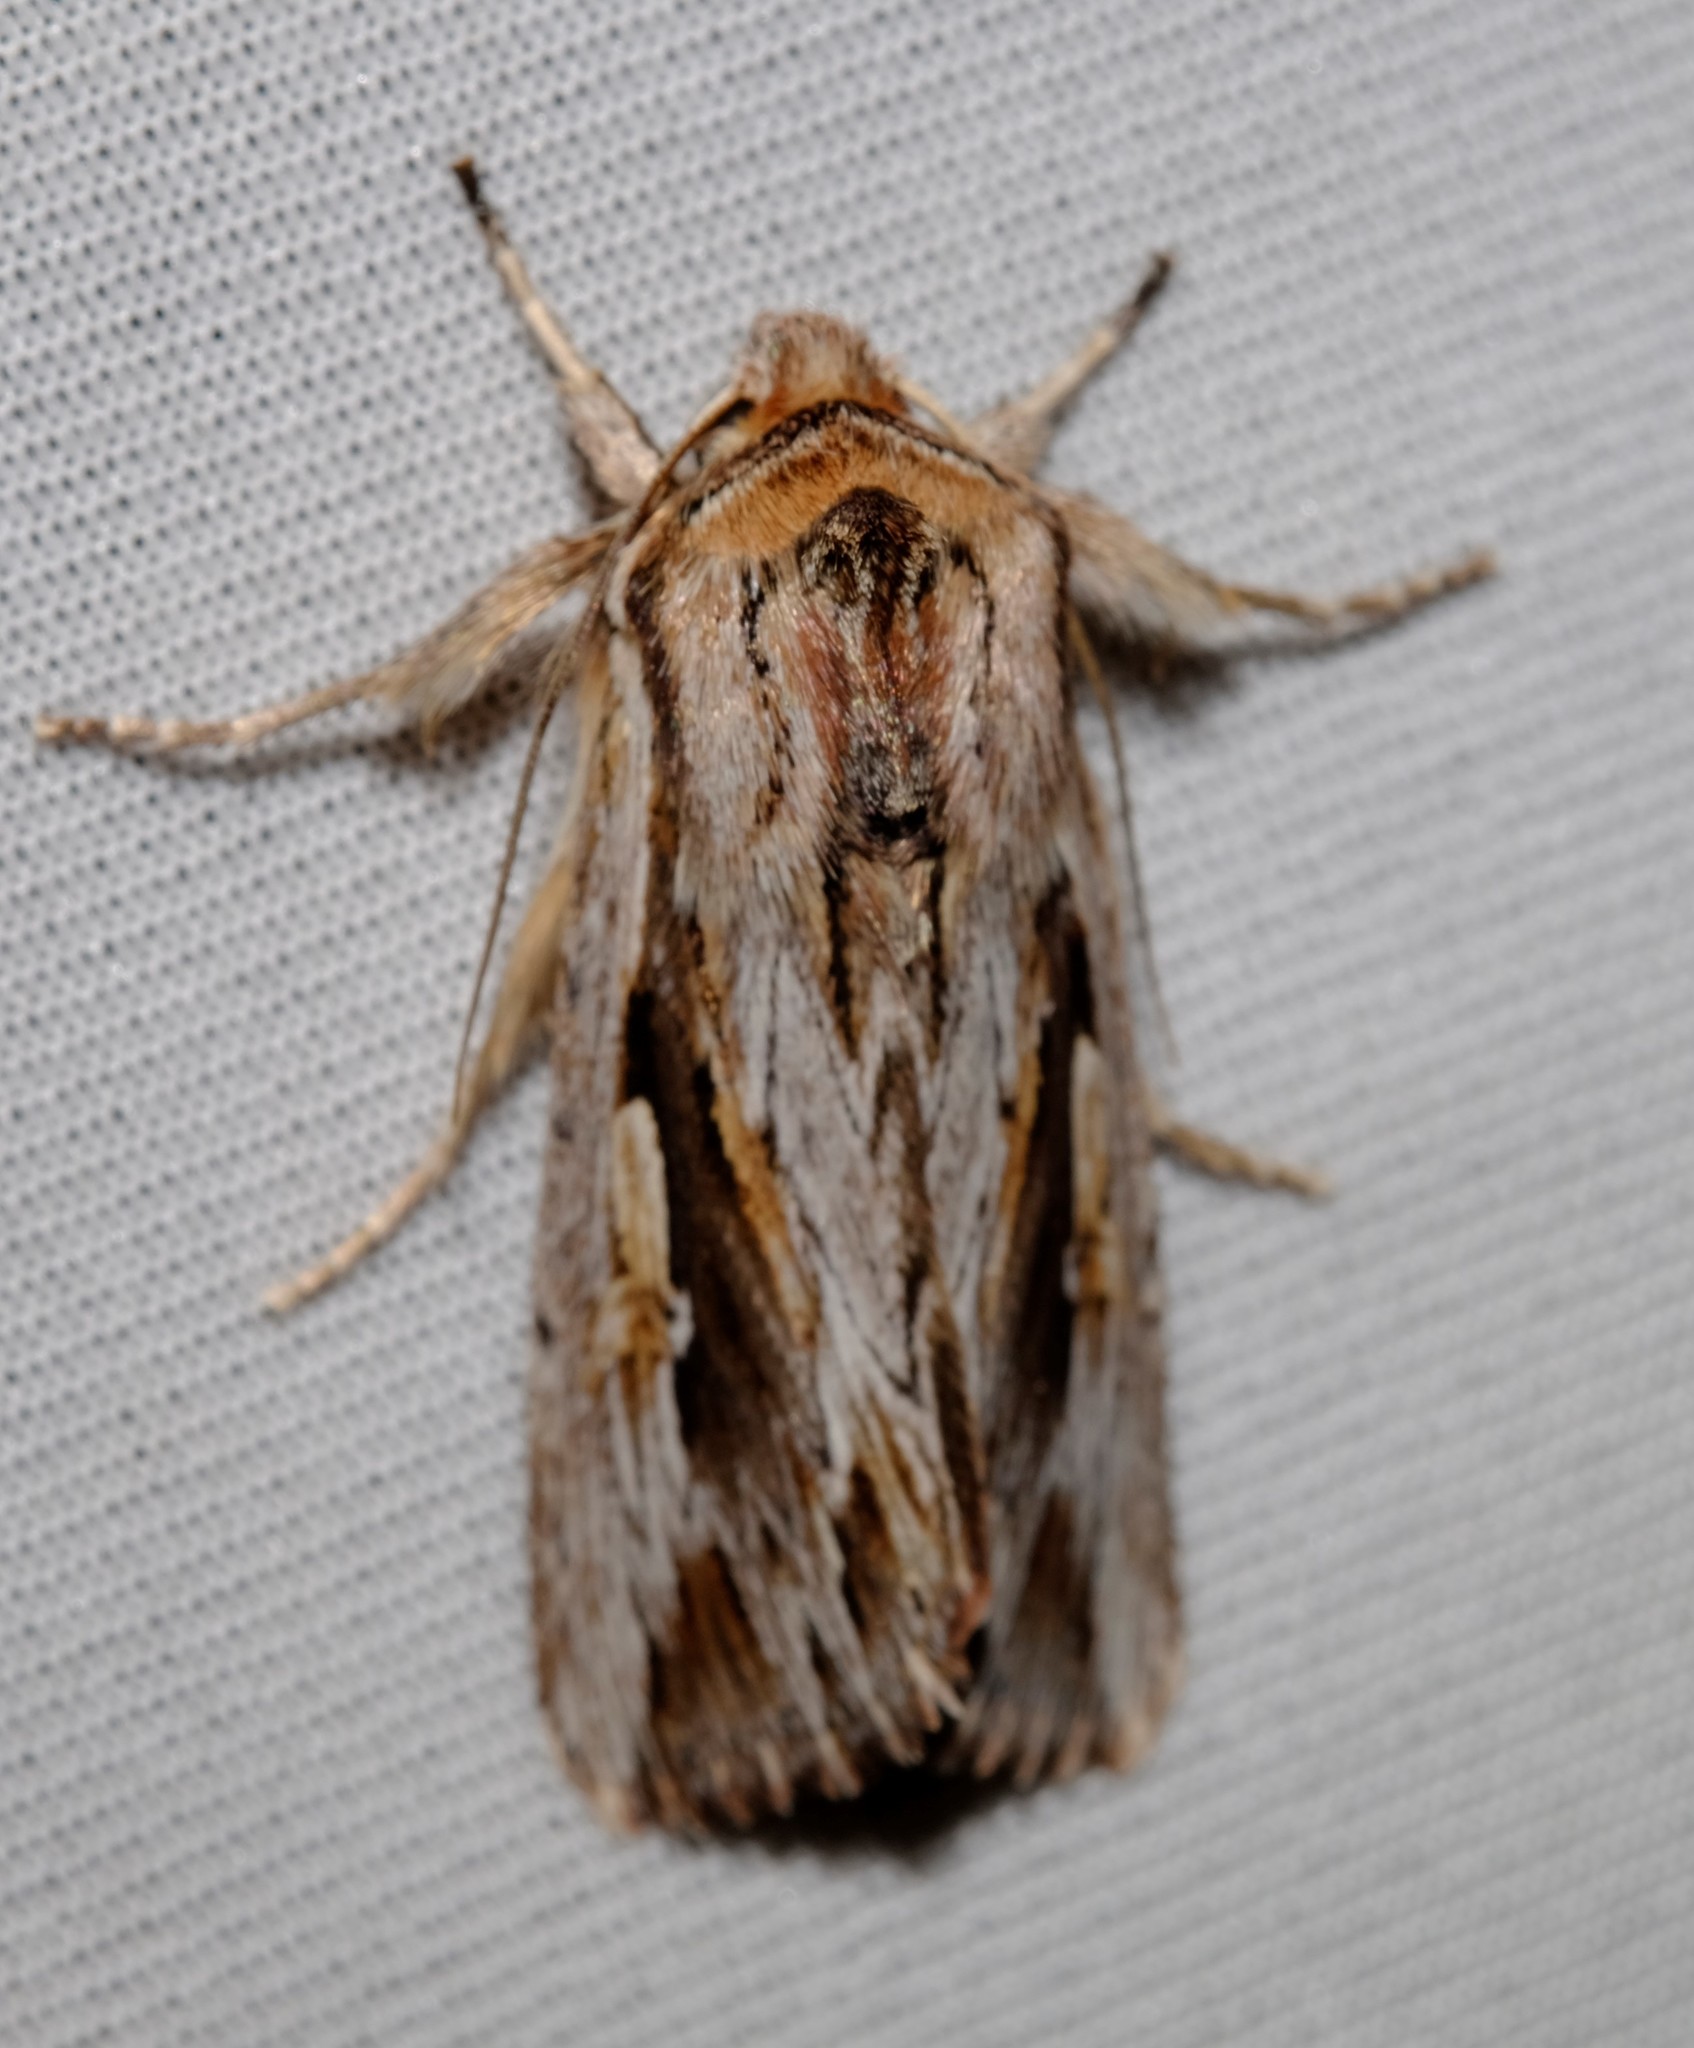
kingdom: Animalia
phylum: Arthropoda
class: Insecta
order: Lepidoptera
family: Noctuidae
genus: Persectania
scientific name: Persectania ewingii
